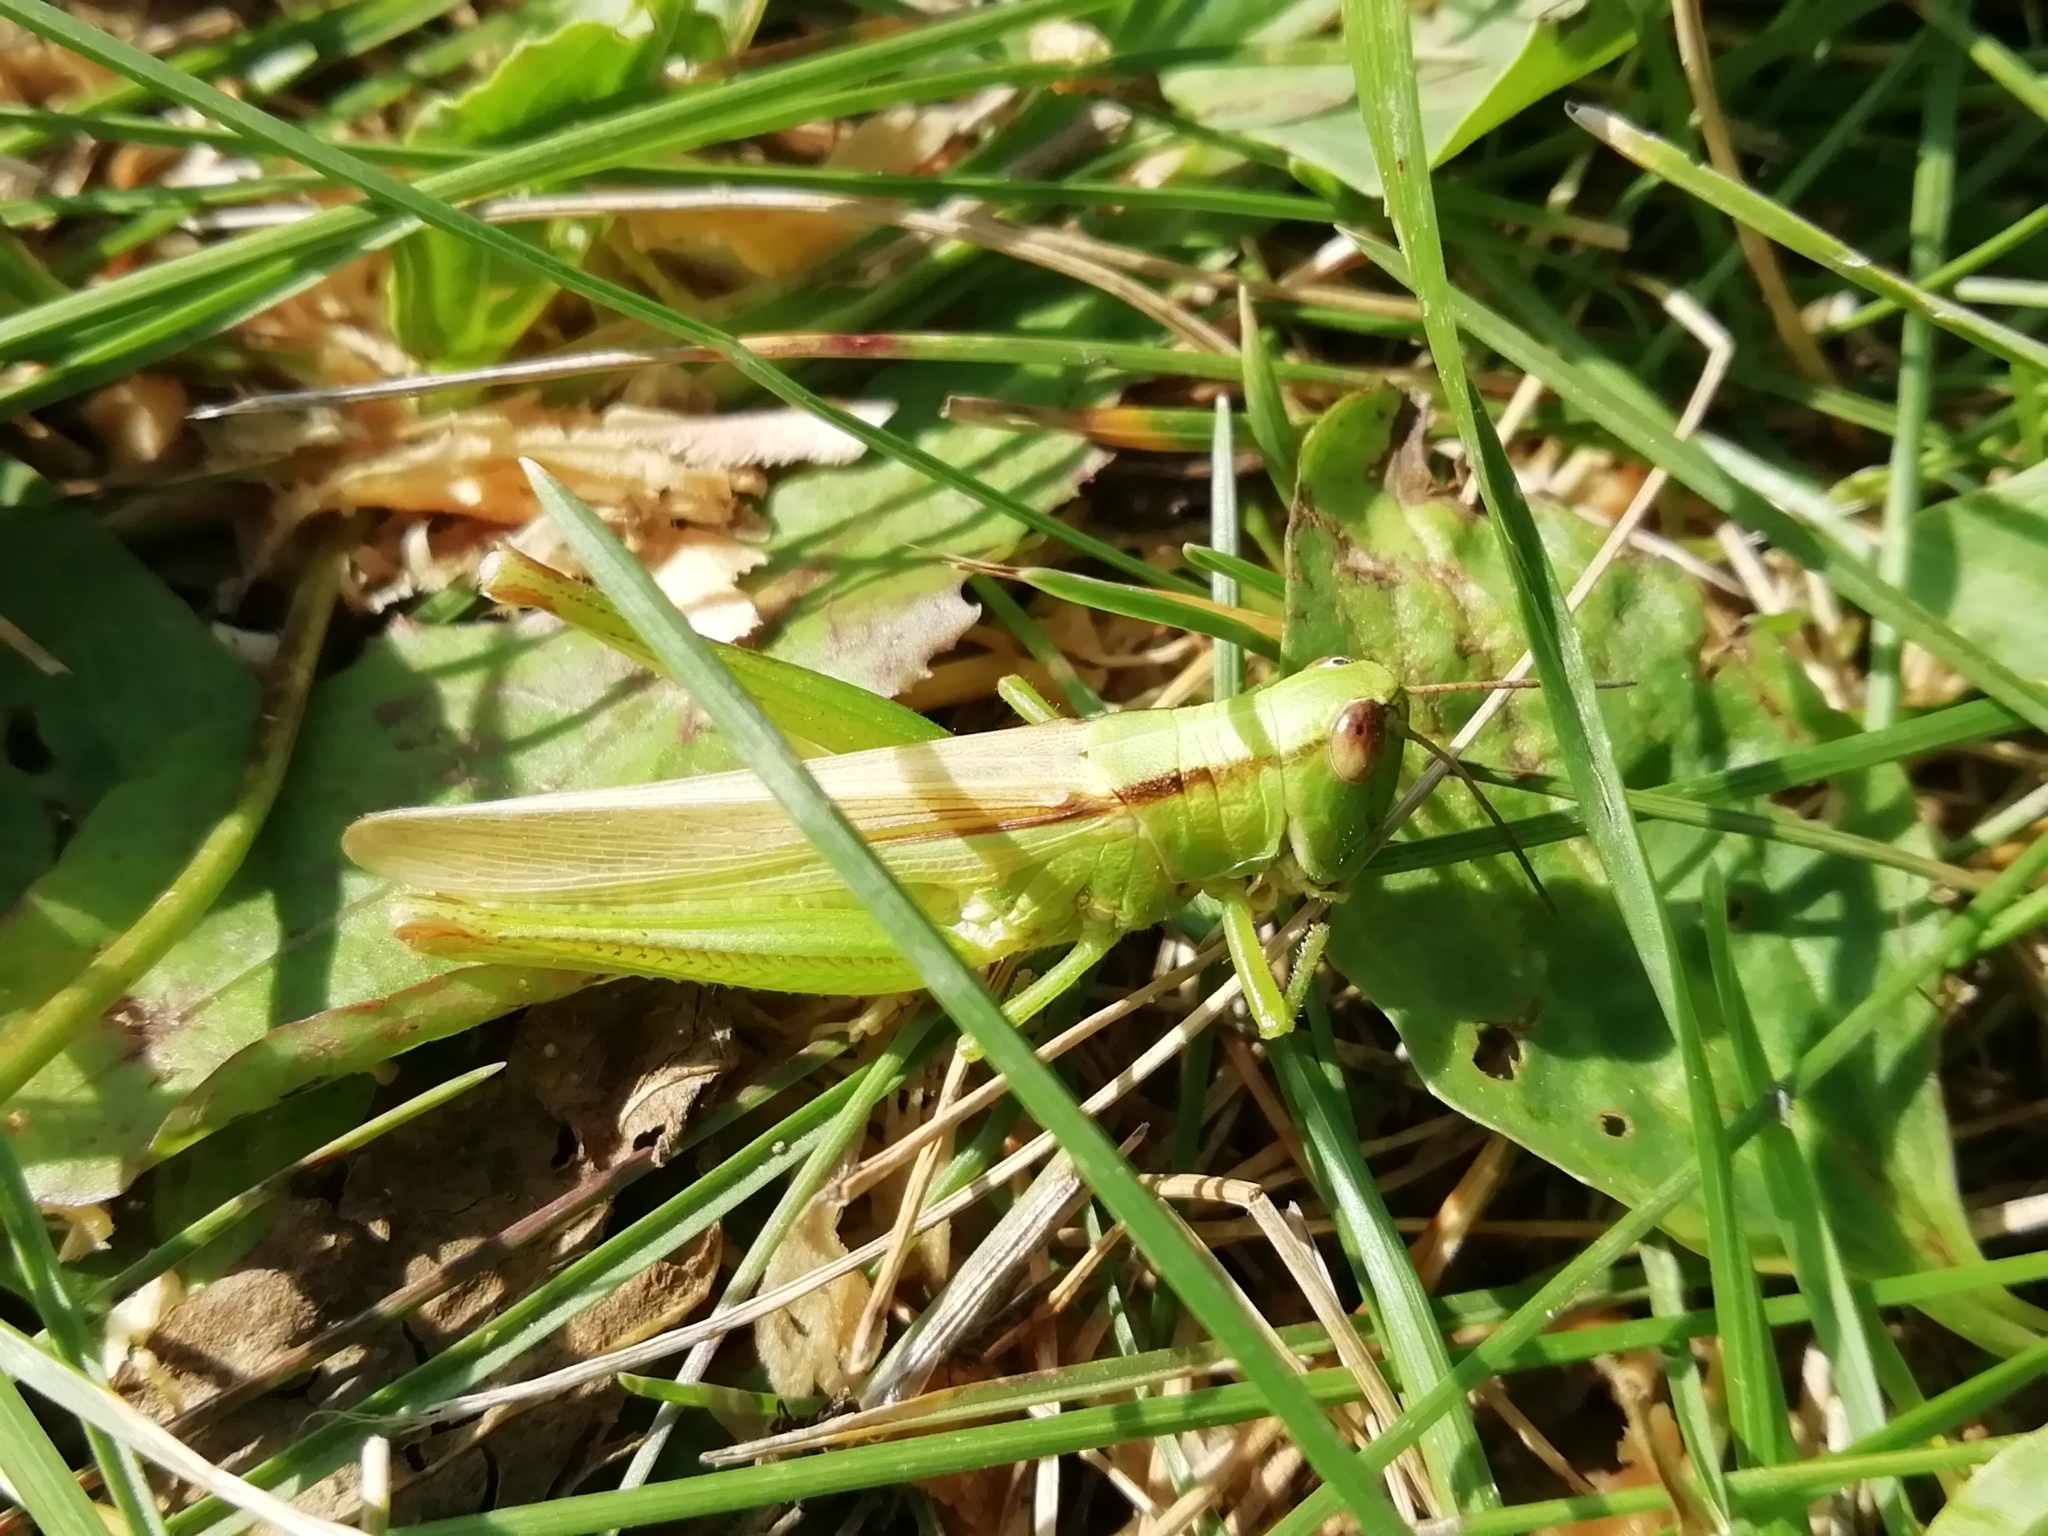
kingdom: Animalia
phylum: Arthropoda
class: Insecta
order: Orthoptera
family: Acrididae
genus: Mecostethus
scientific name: Mecostethus parapleurus
